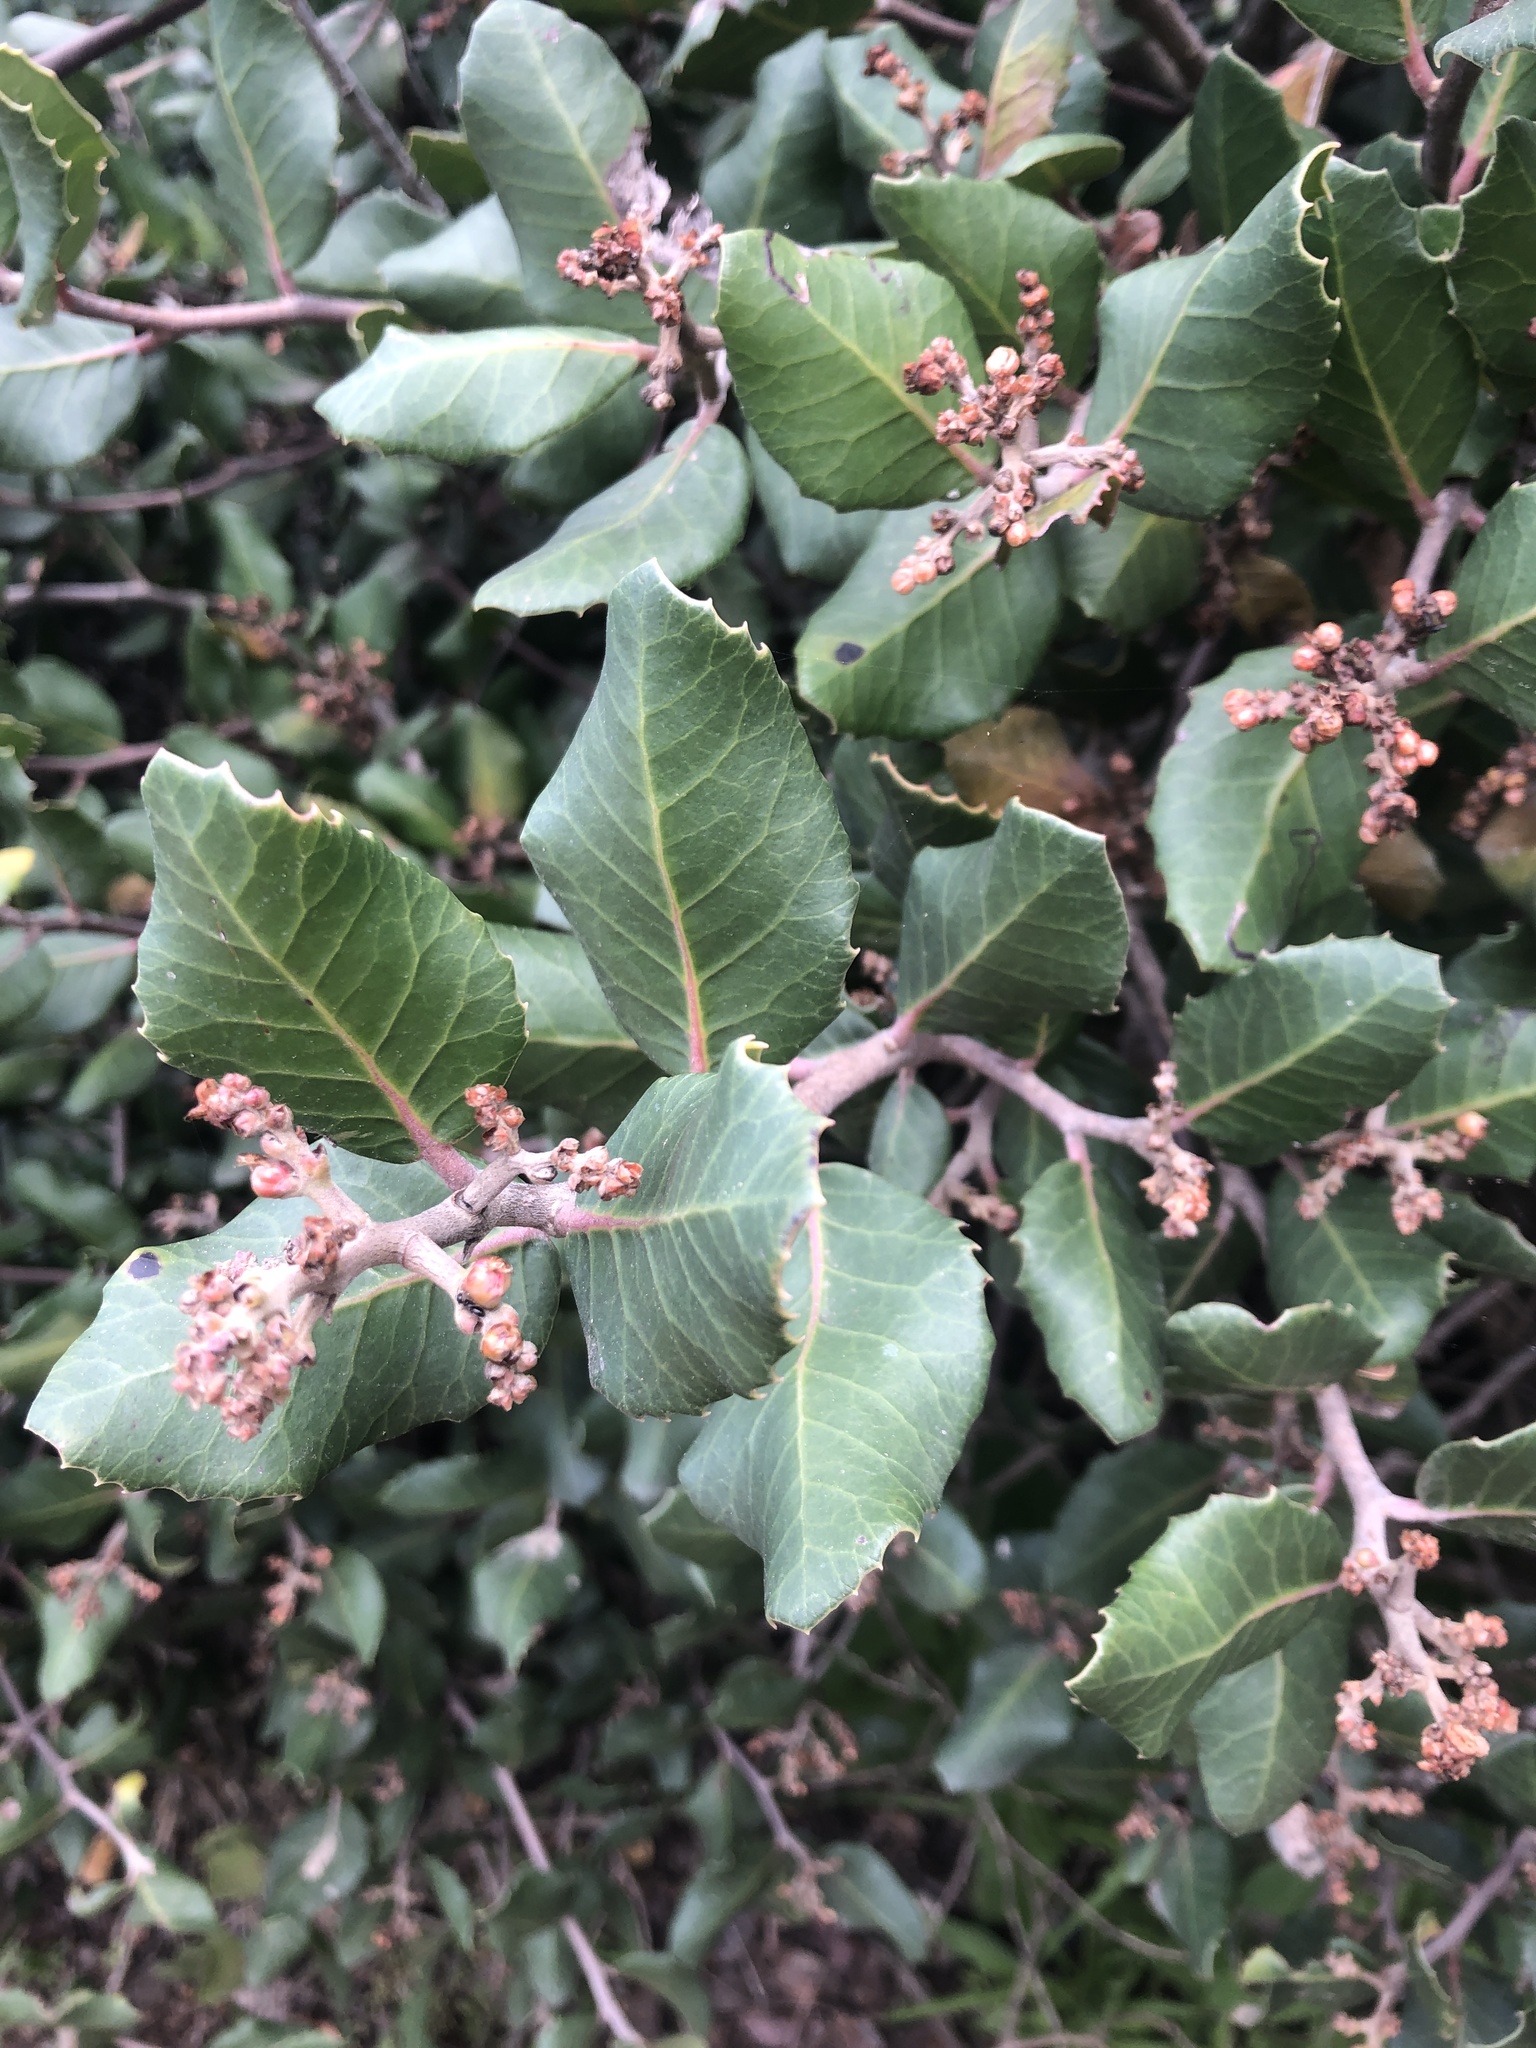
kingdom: Plantae
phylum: Tracheophyta
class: Magnoliopsida
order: Sapindales
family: Anacardiaceae
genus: Rhus
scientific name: Rhus integrifolia
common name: Lemonade sumac
